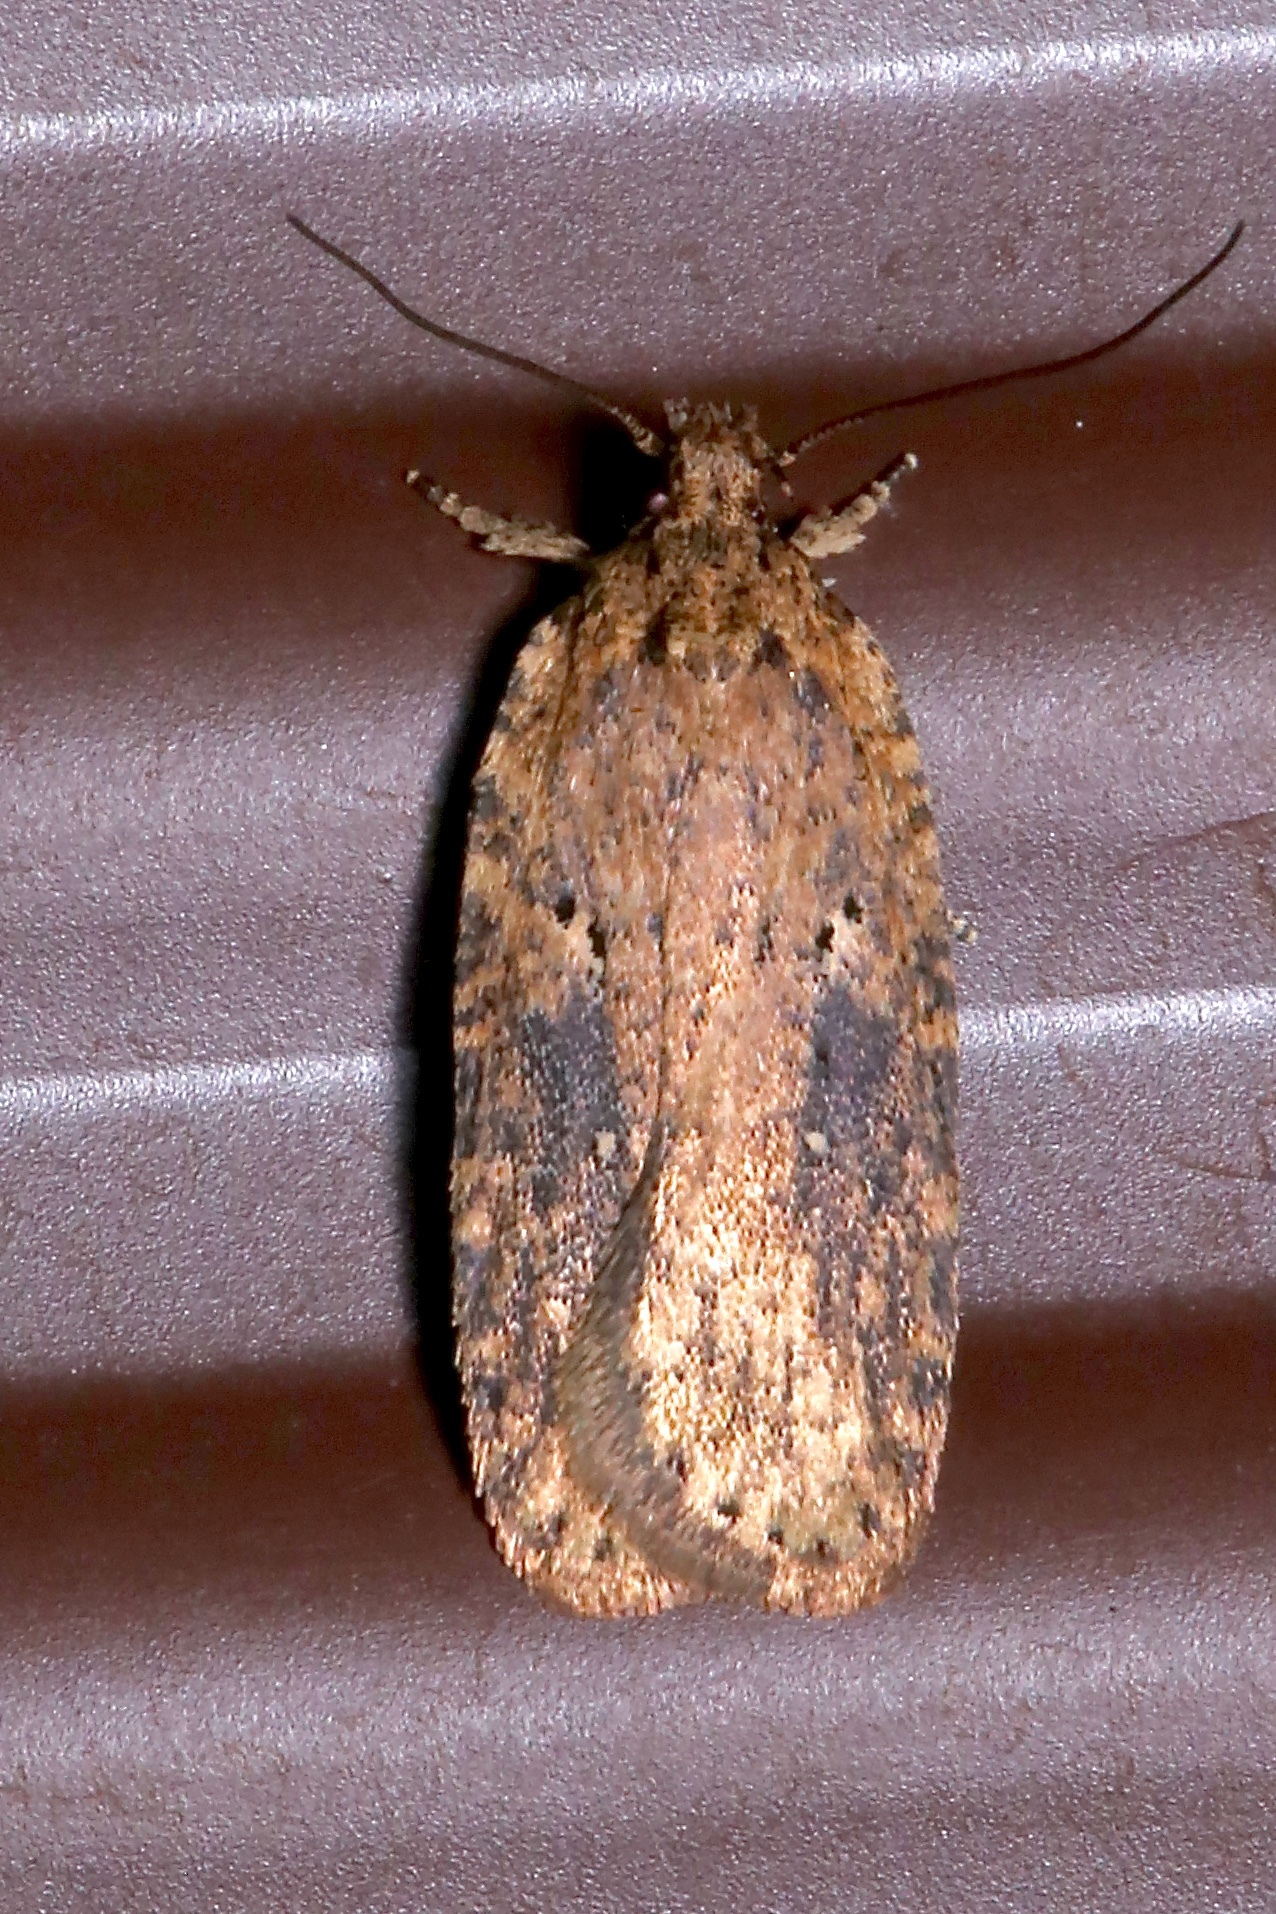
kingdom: Animalia
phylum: Arthropoda
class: Insecta
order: Lepidoptera
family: Depressariidae
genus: Agonopterix
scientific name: Agonopterix pulvipennella
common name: Goldenrod leafffolder
